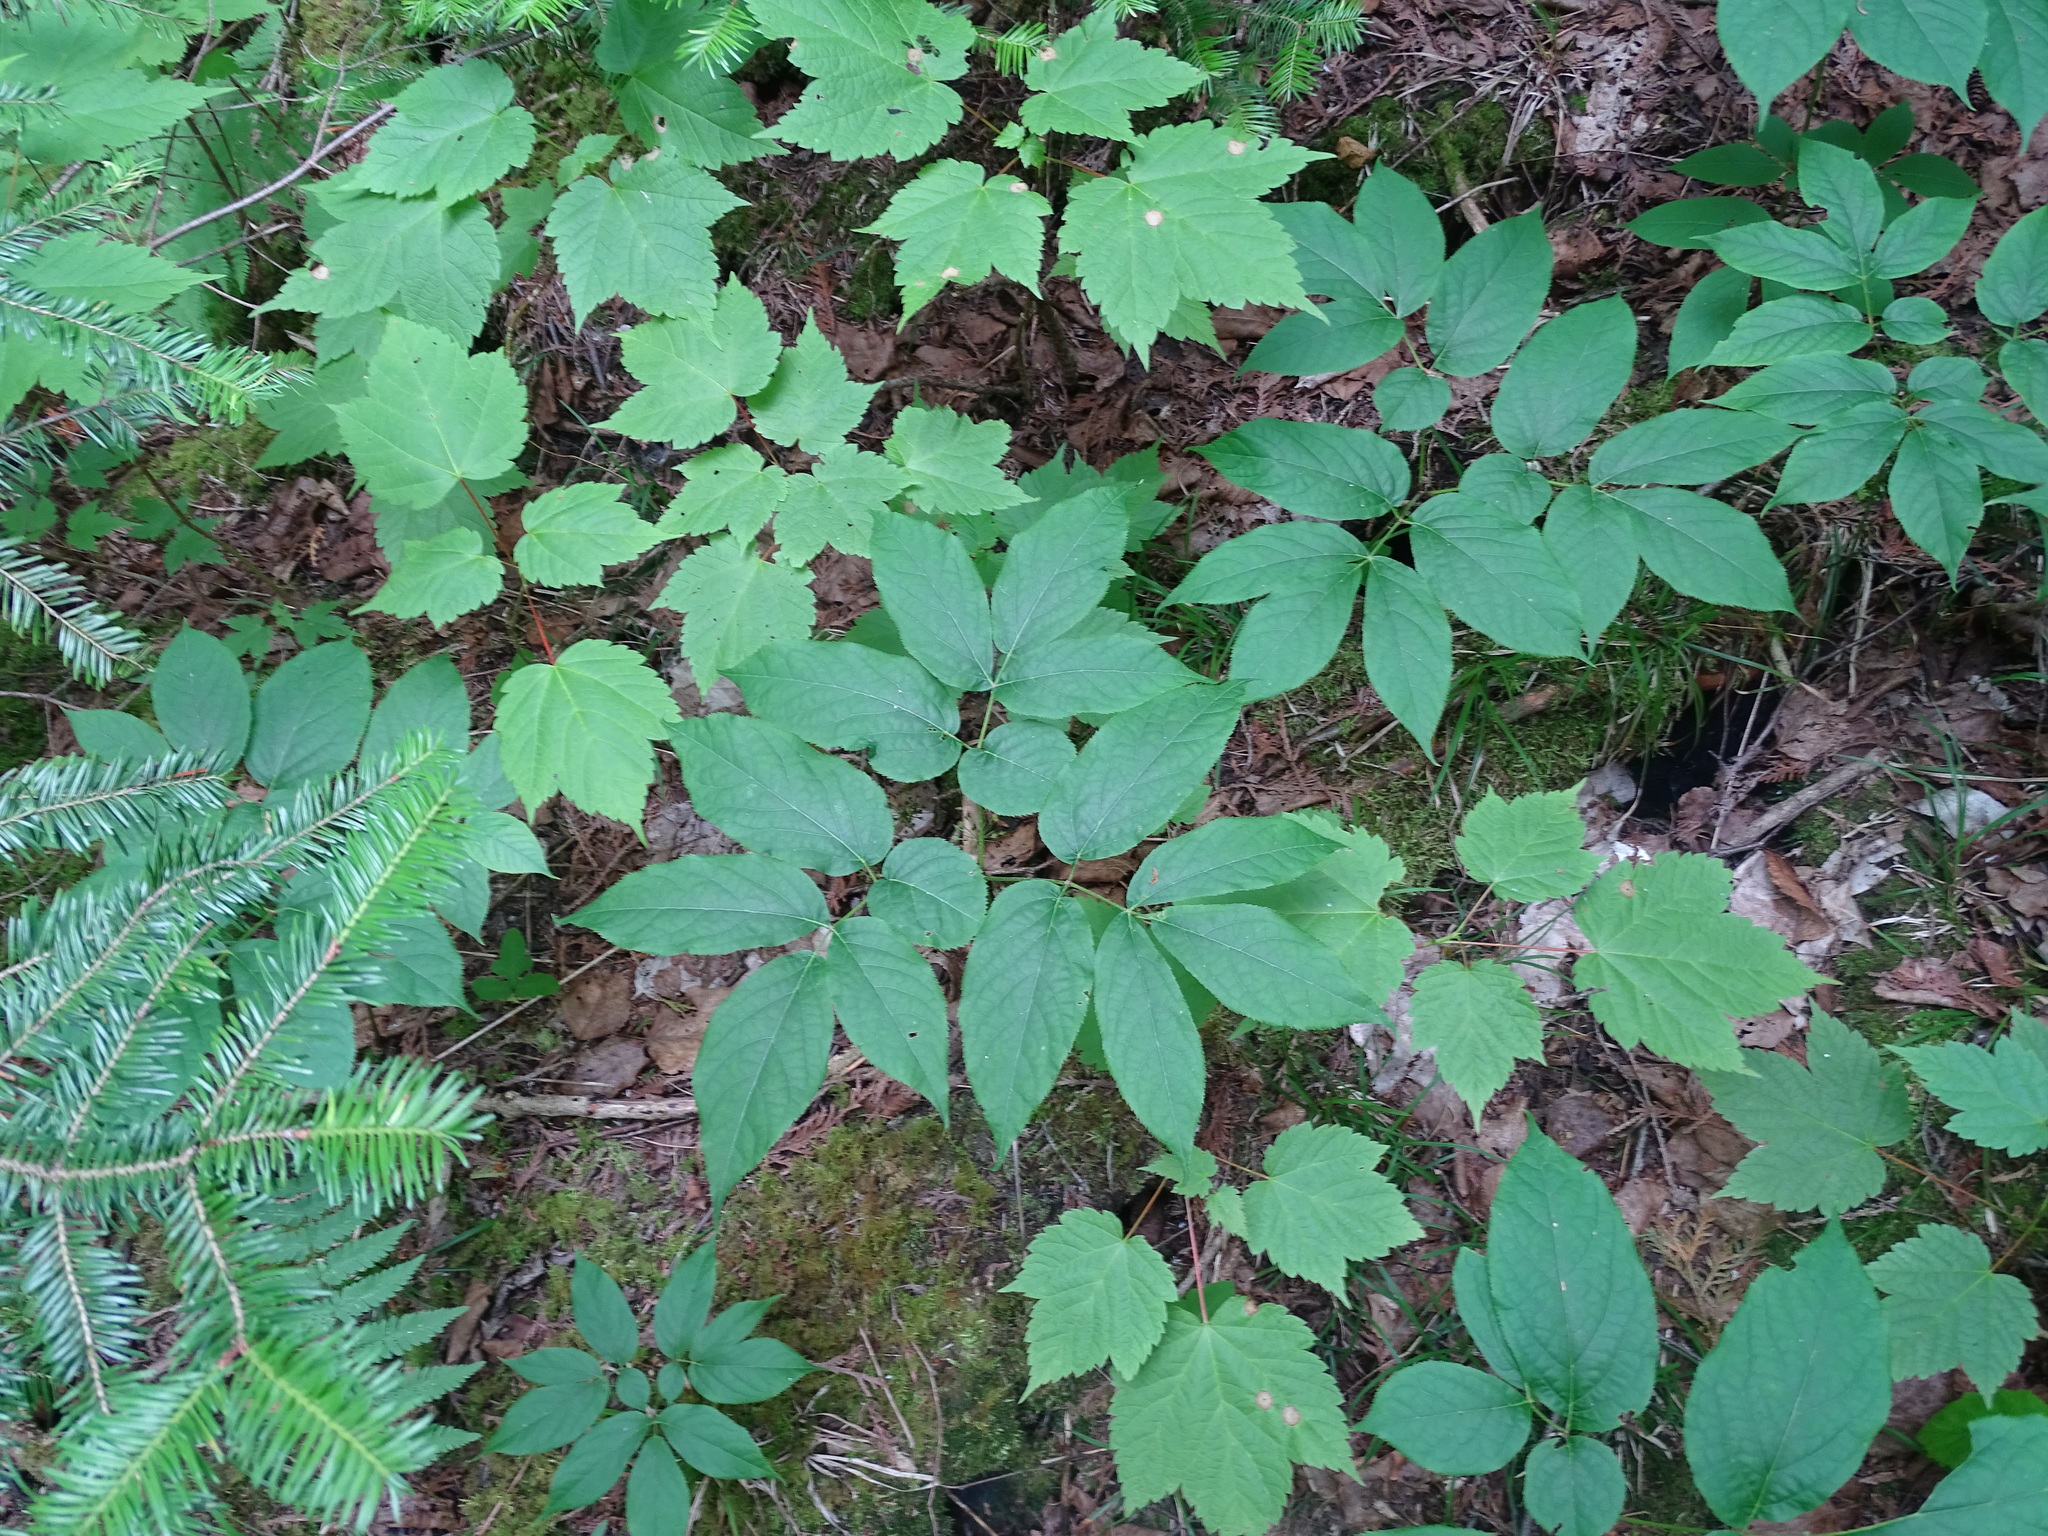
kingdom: Plantae
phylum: Tracheophyta
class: Magnoliopsida
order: Apiales
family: Araliaceae
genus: Aralia
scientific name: Aralia nudicaulis
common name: Wild sarsaparilla
